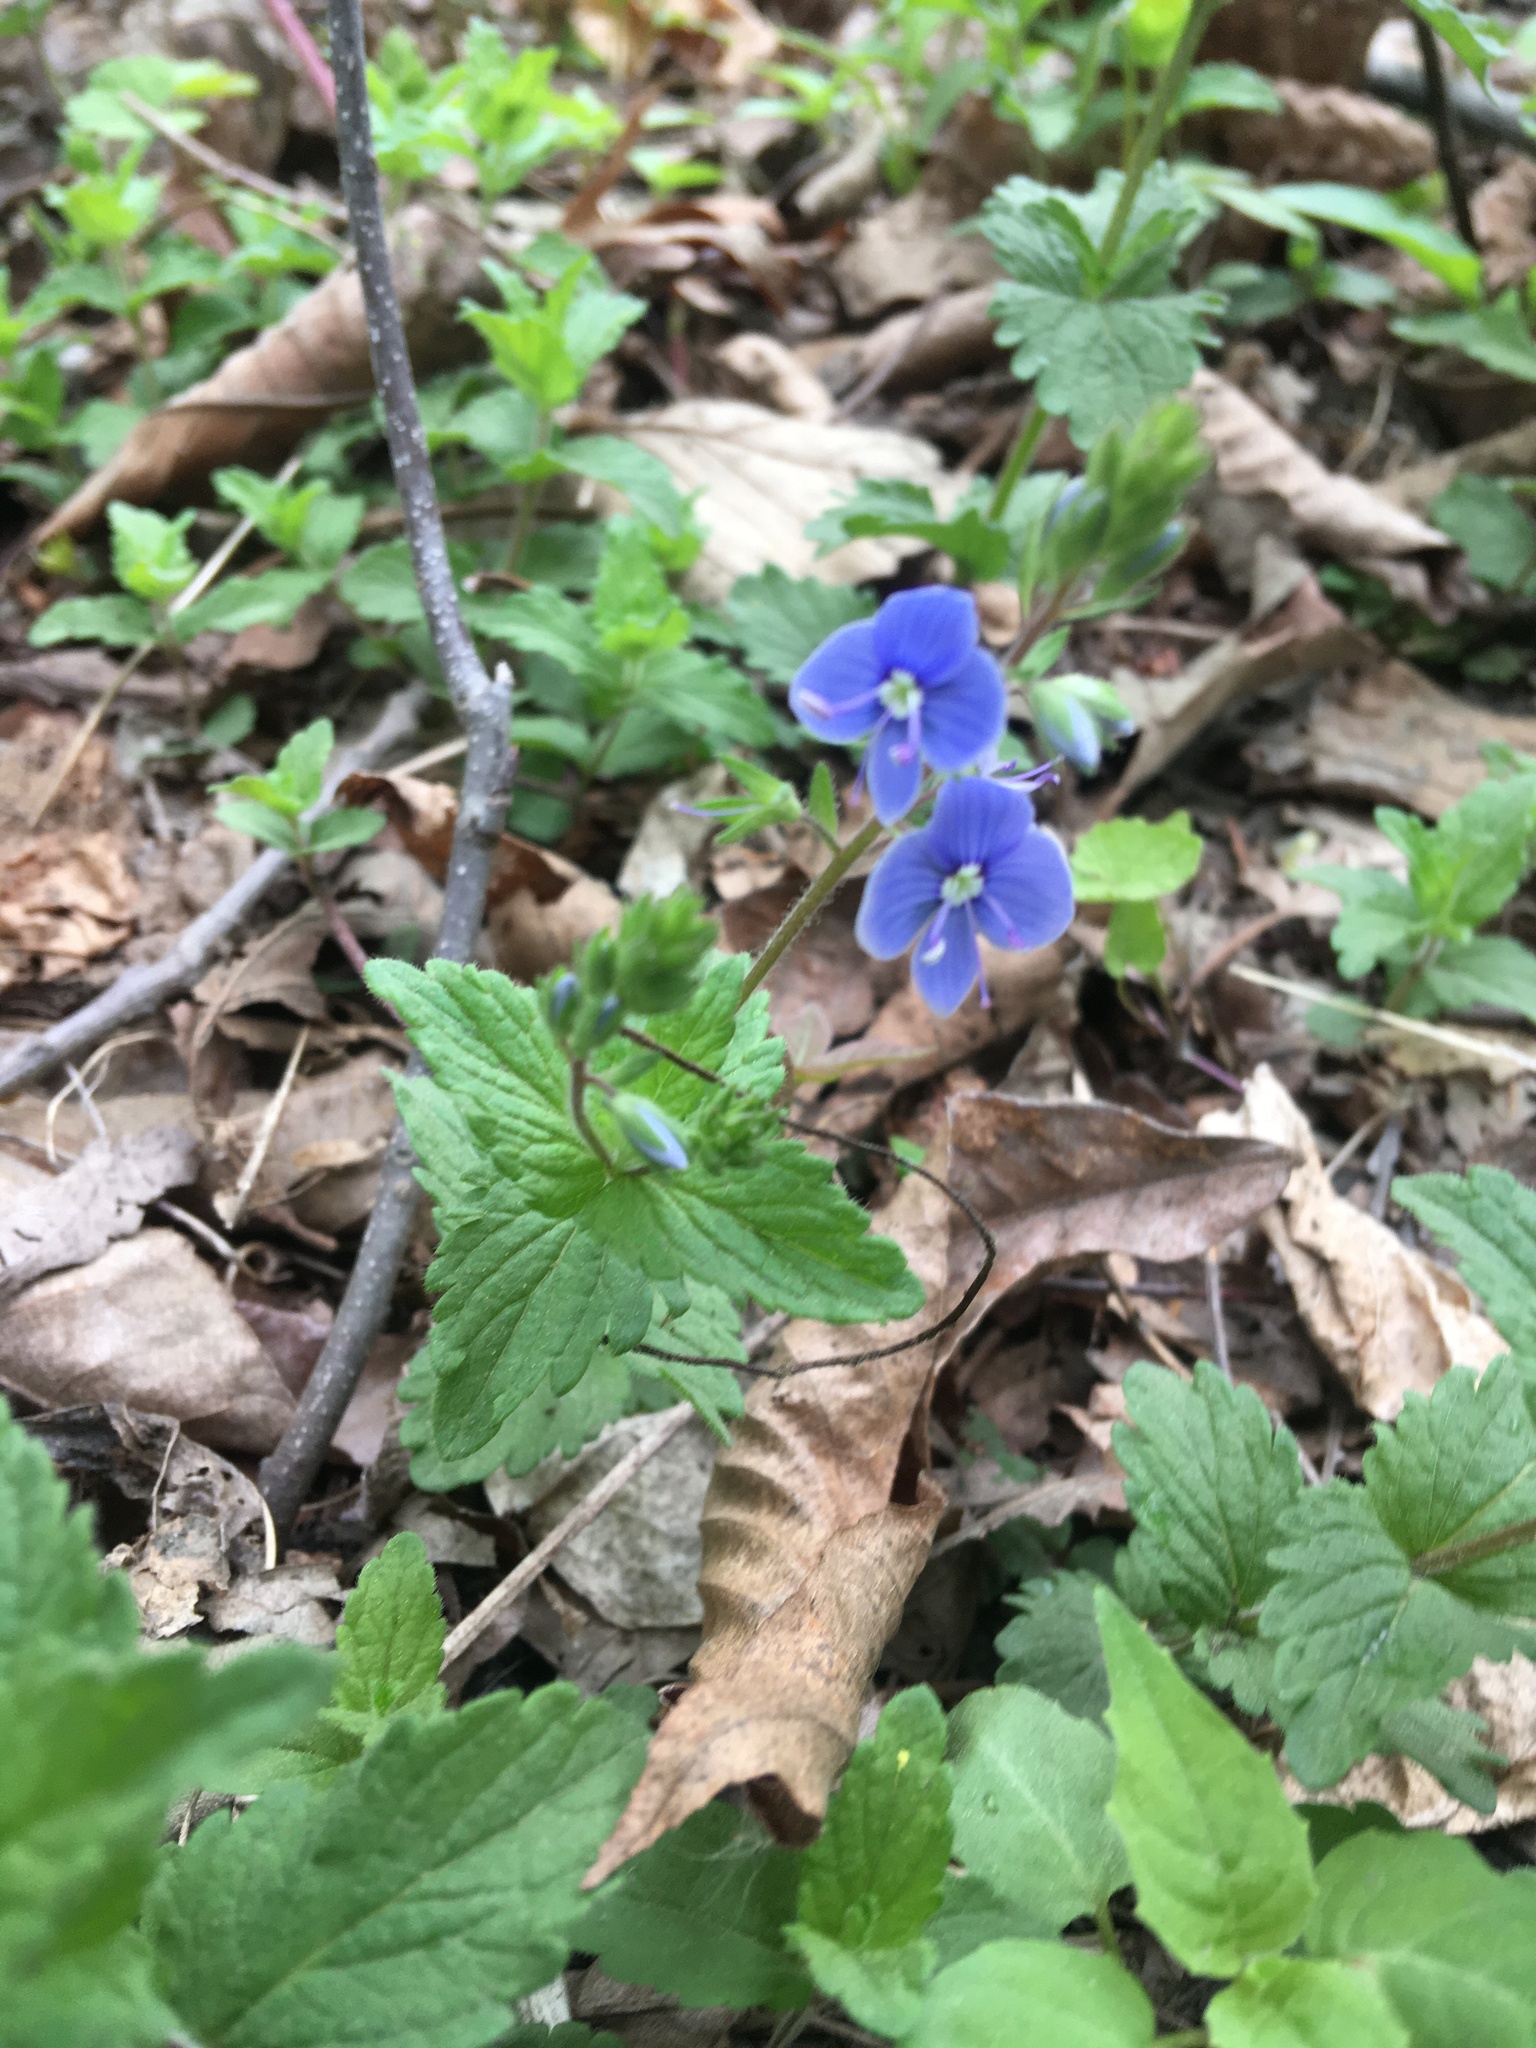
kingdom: Plantae
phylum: Tracheophyta
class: Magnoliopsida
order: Lamiales
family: Plantaginaceae
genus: Veronica
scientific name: Veronica chamaedrys
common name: Germander speedwell
